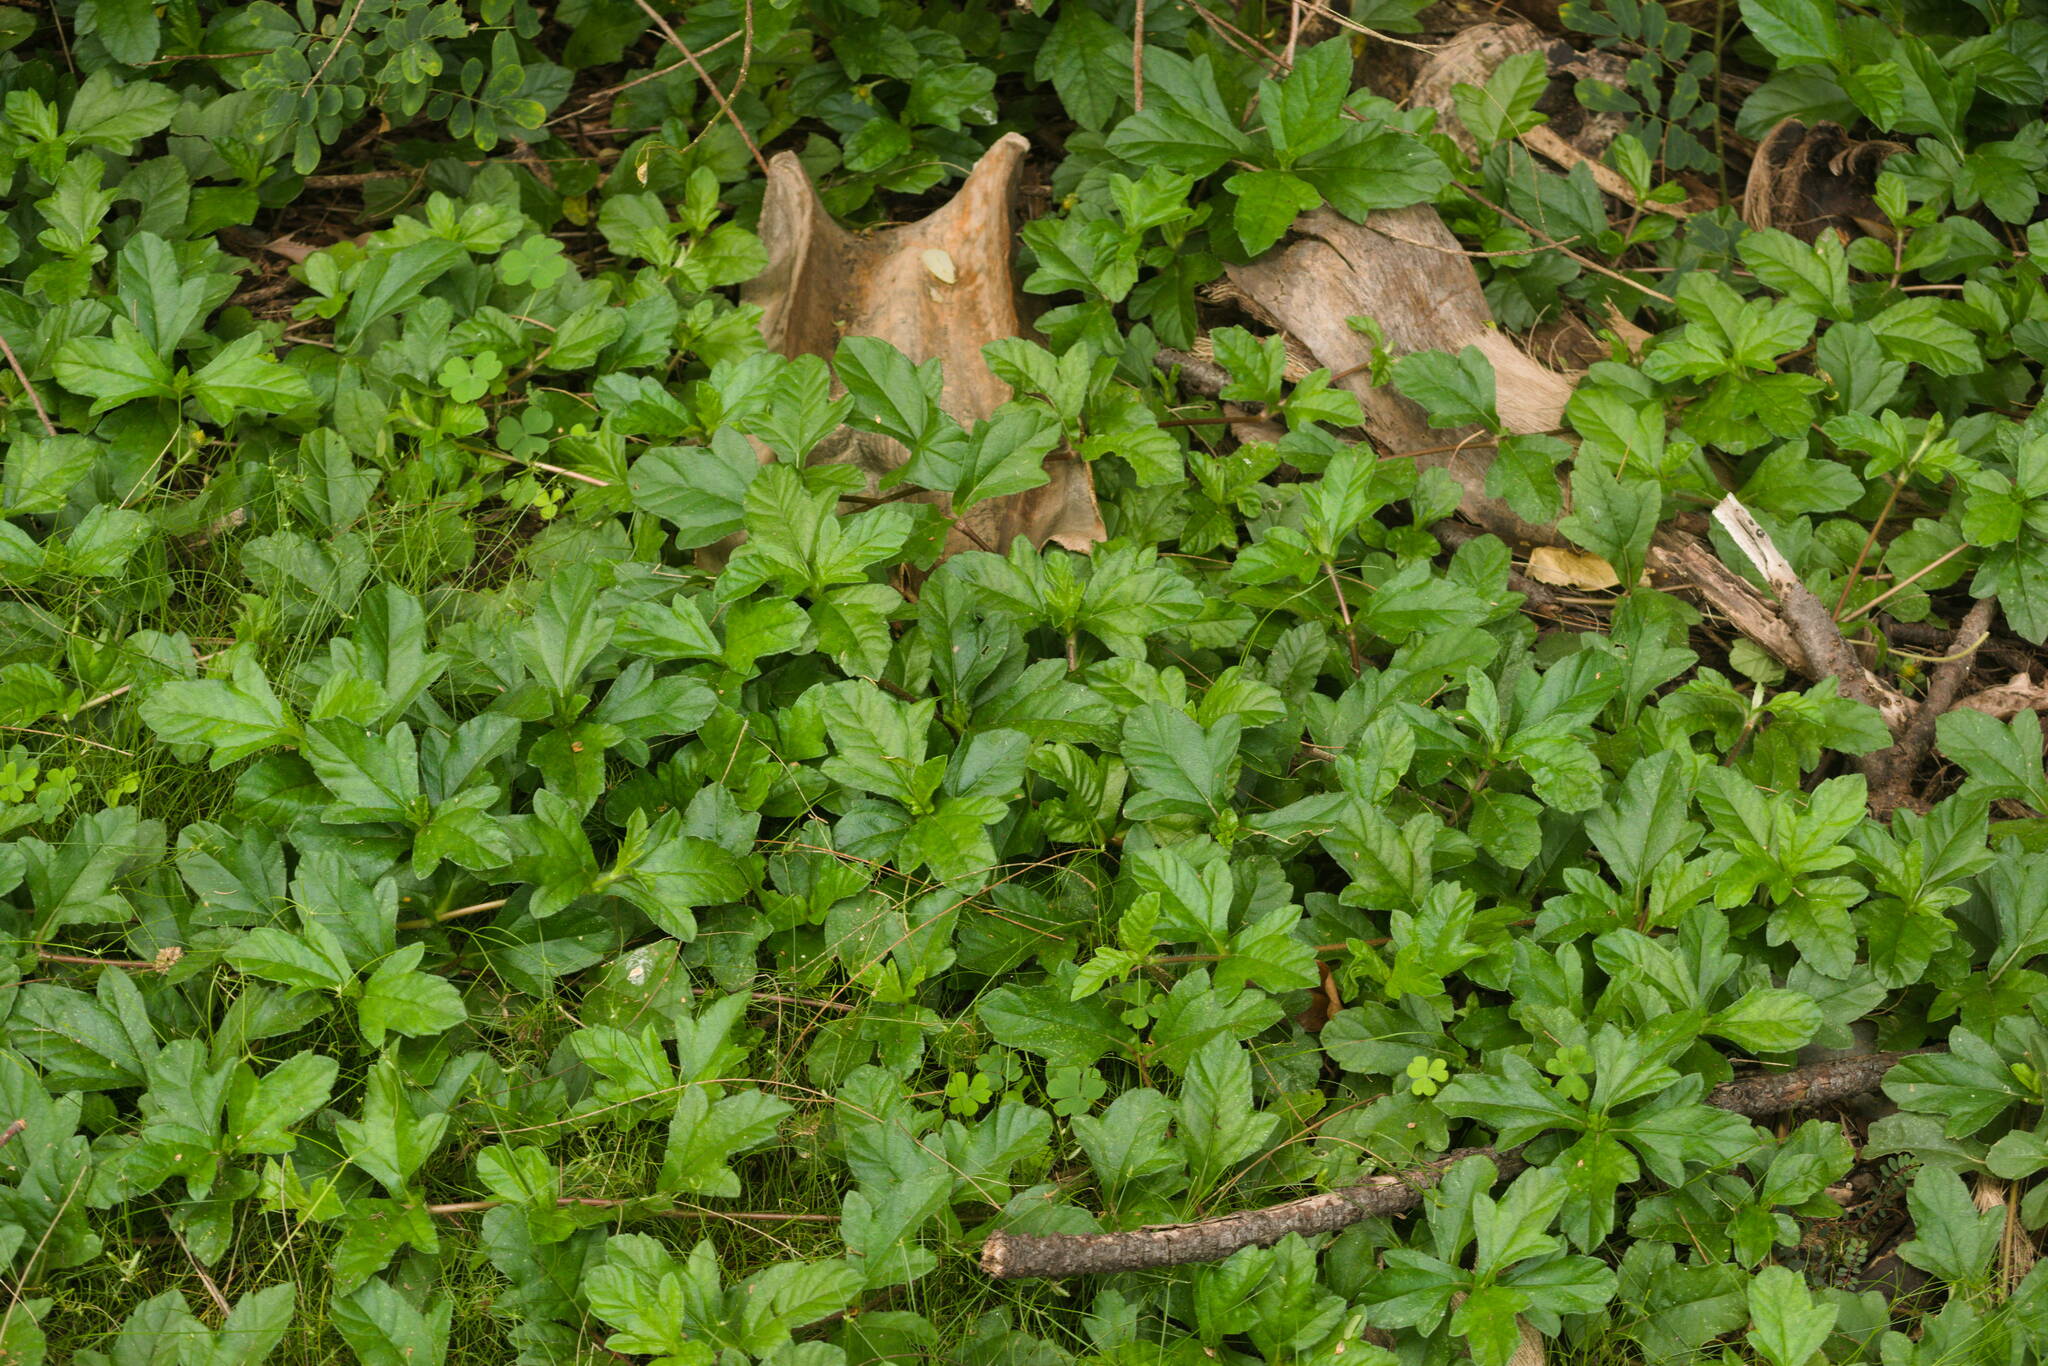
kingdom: Plantae
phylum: Tracheophyta
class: Magnoliopsida
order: Asterales
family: Asteraceae
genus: Sphagneticola
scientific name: Sphagneticola trilobata
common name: Bay biscayne creeping-oxeye
